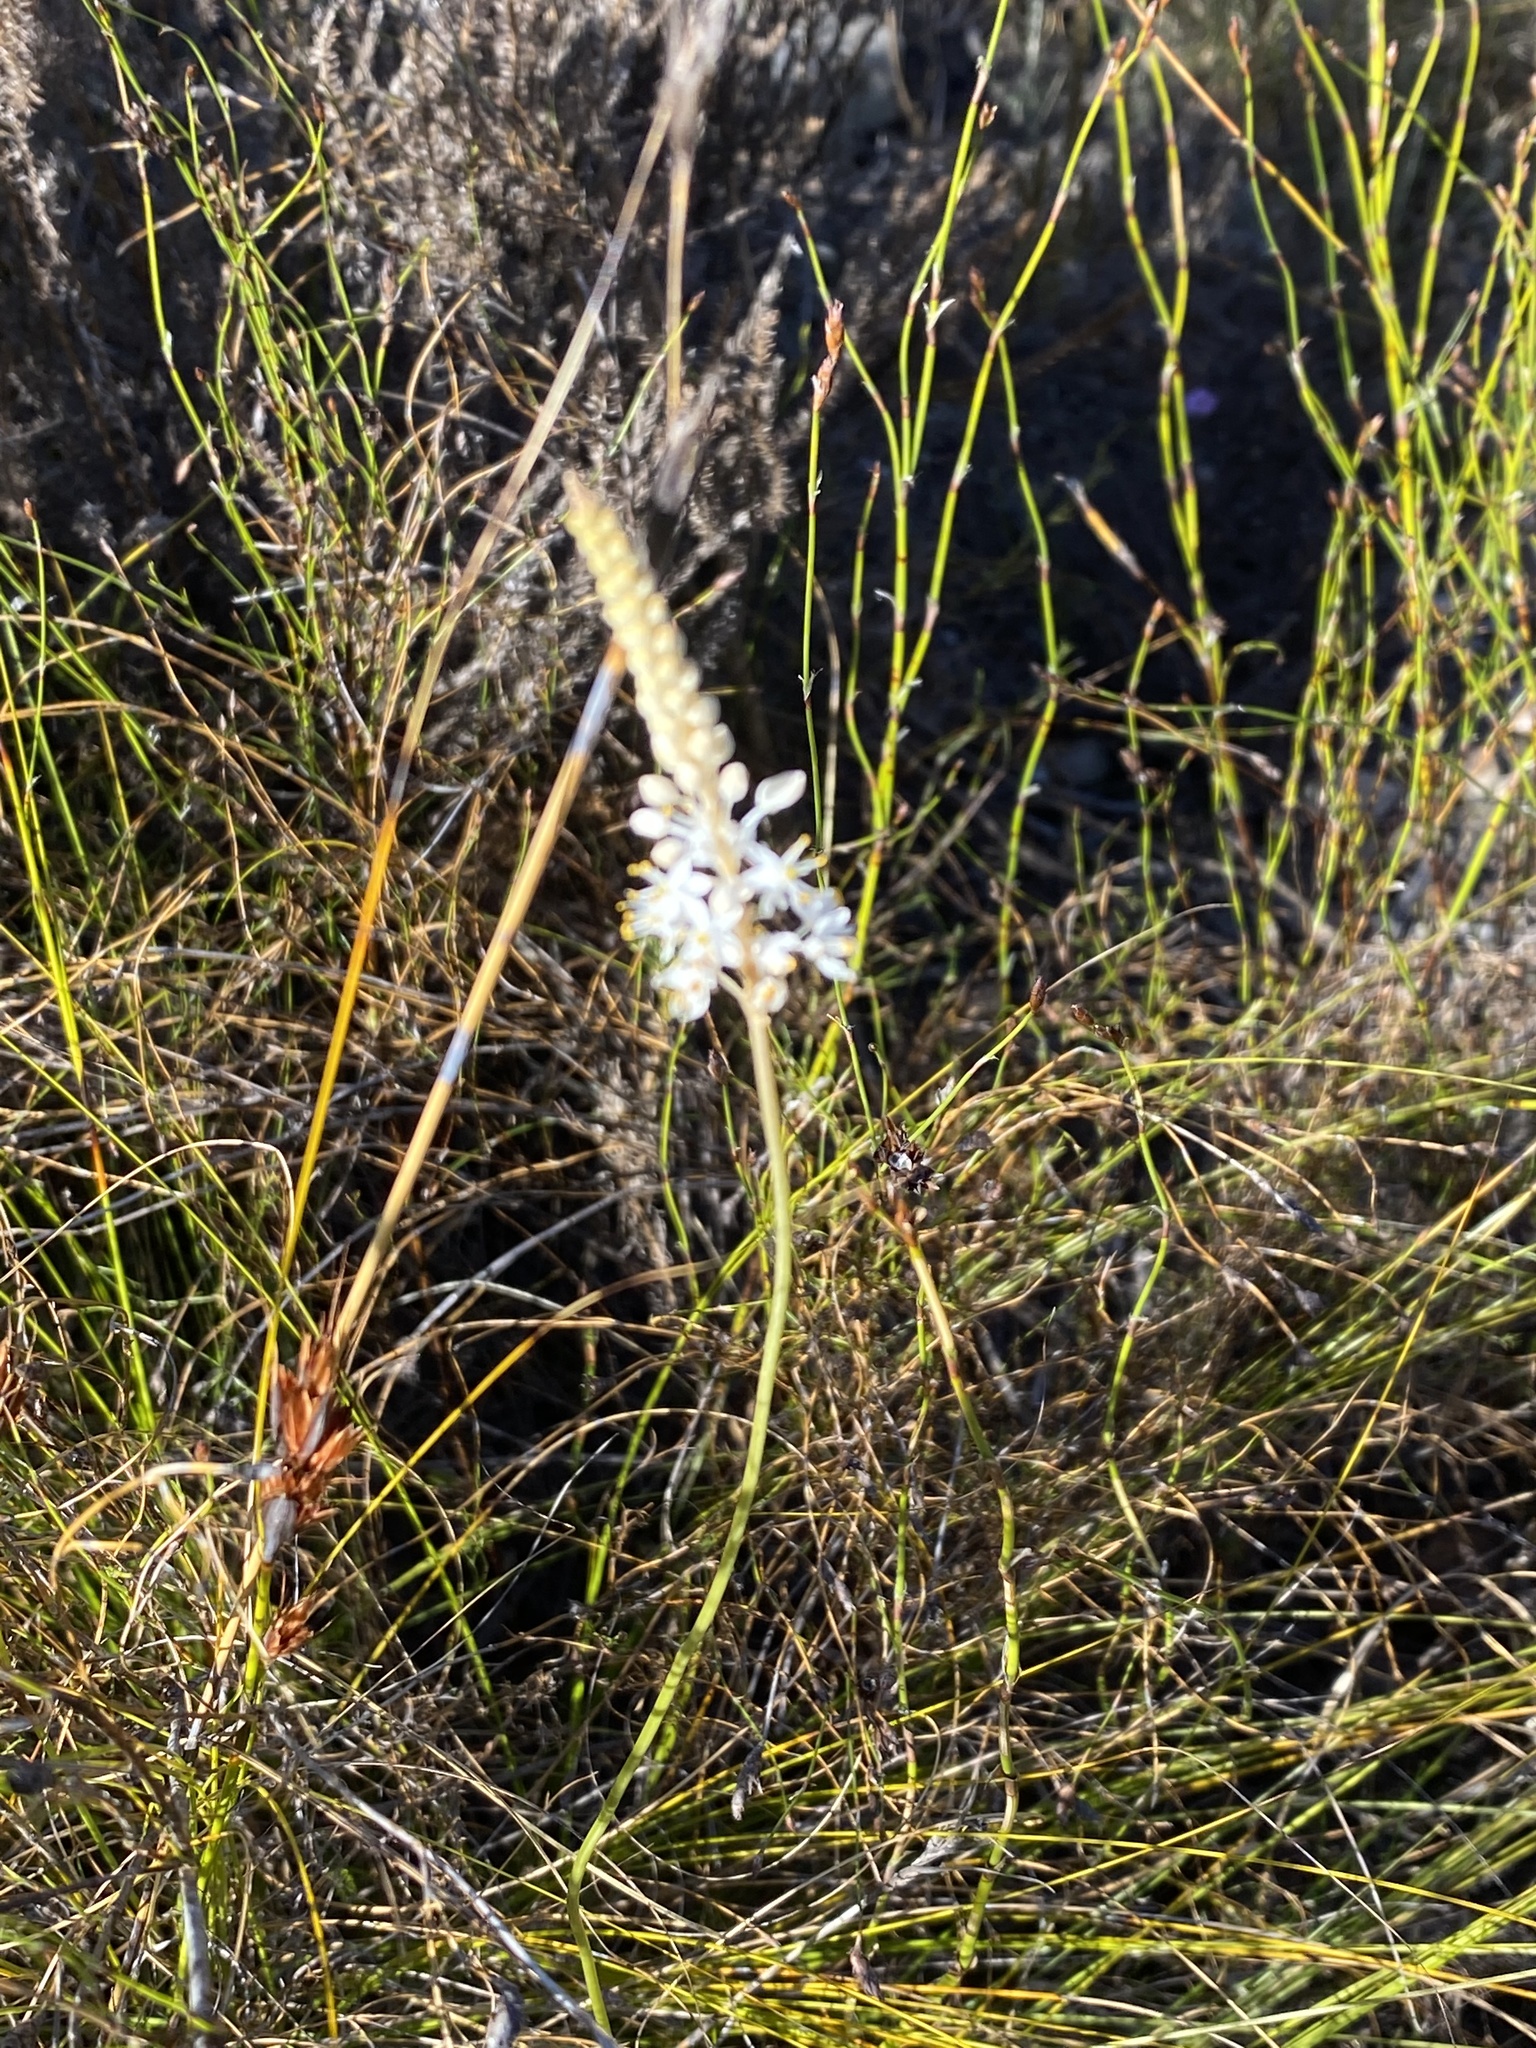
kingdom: Plantae
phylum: Tracheophyta
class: Liliopsida
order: Asparagales
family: Asphodelaceae
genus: Bulbinella
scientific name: Bulbinella trinervis
